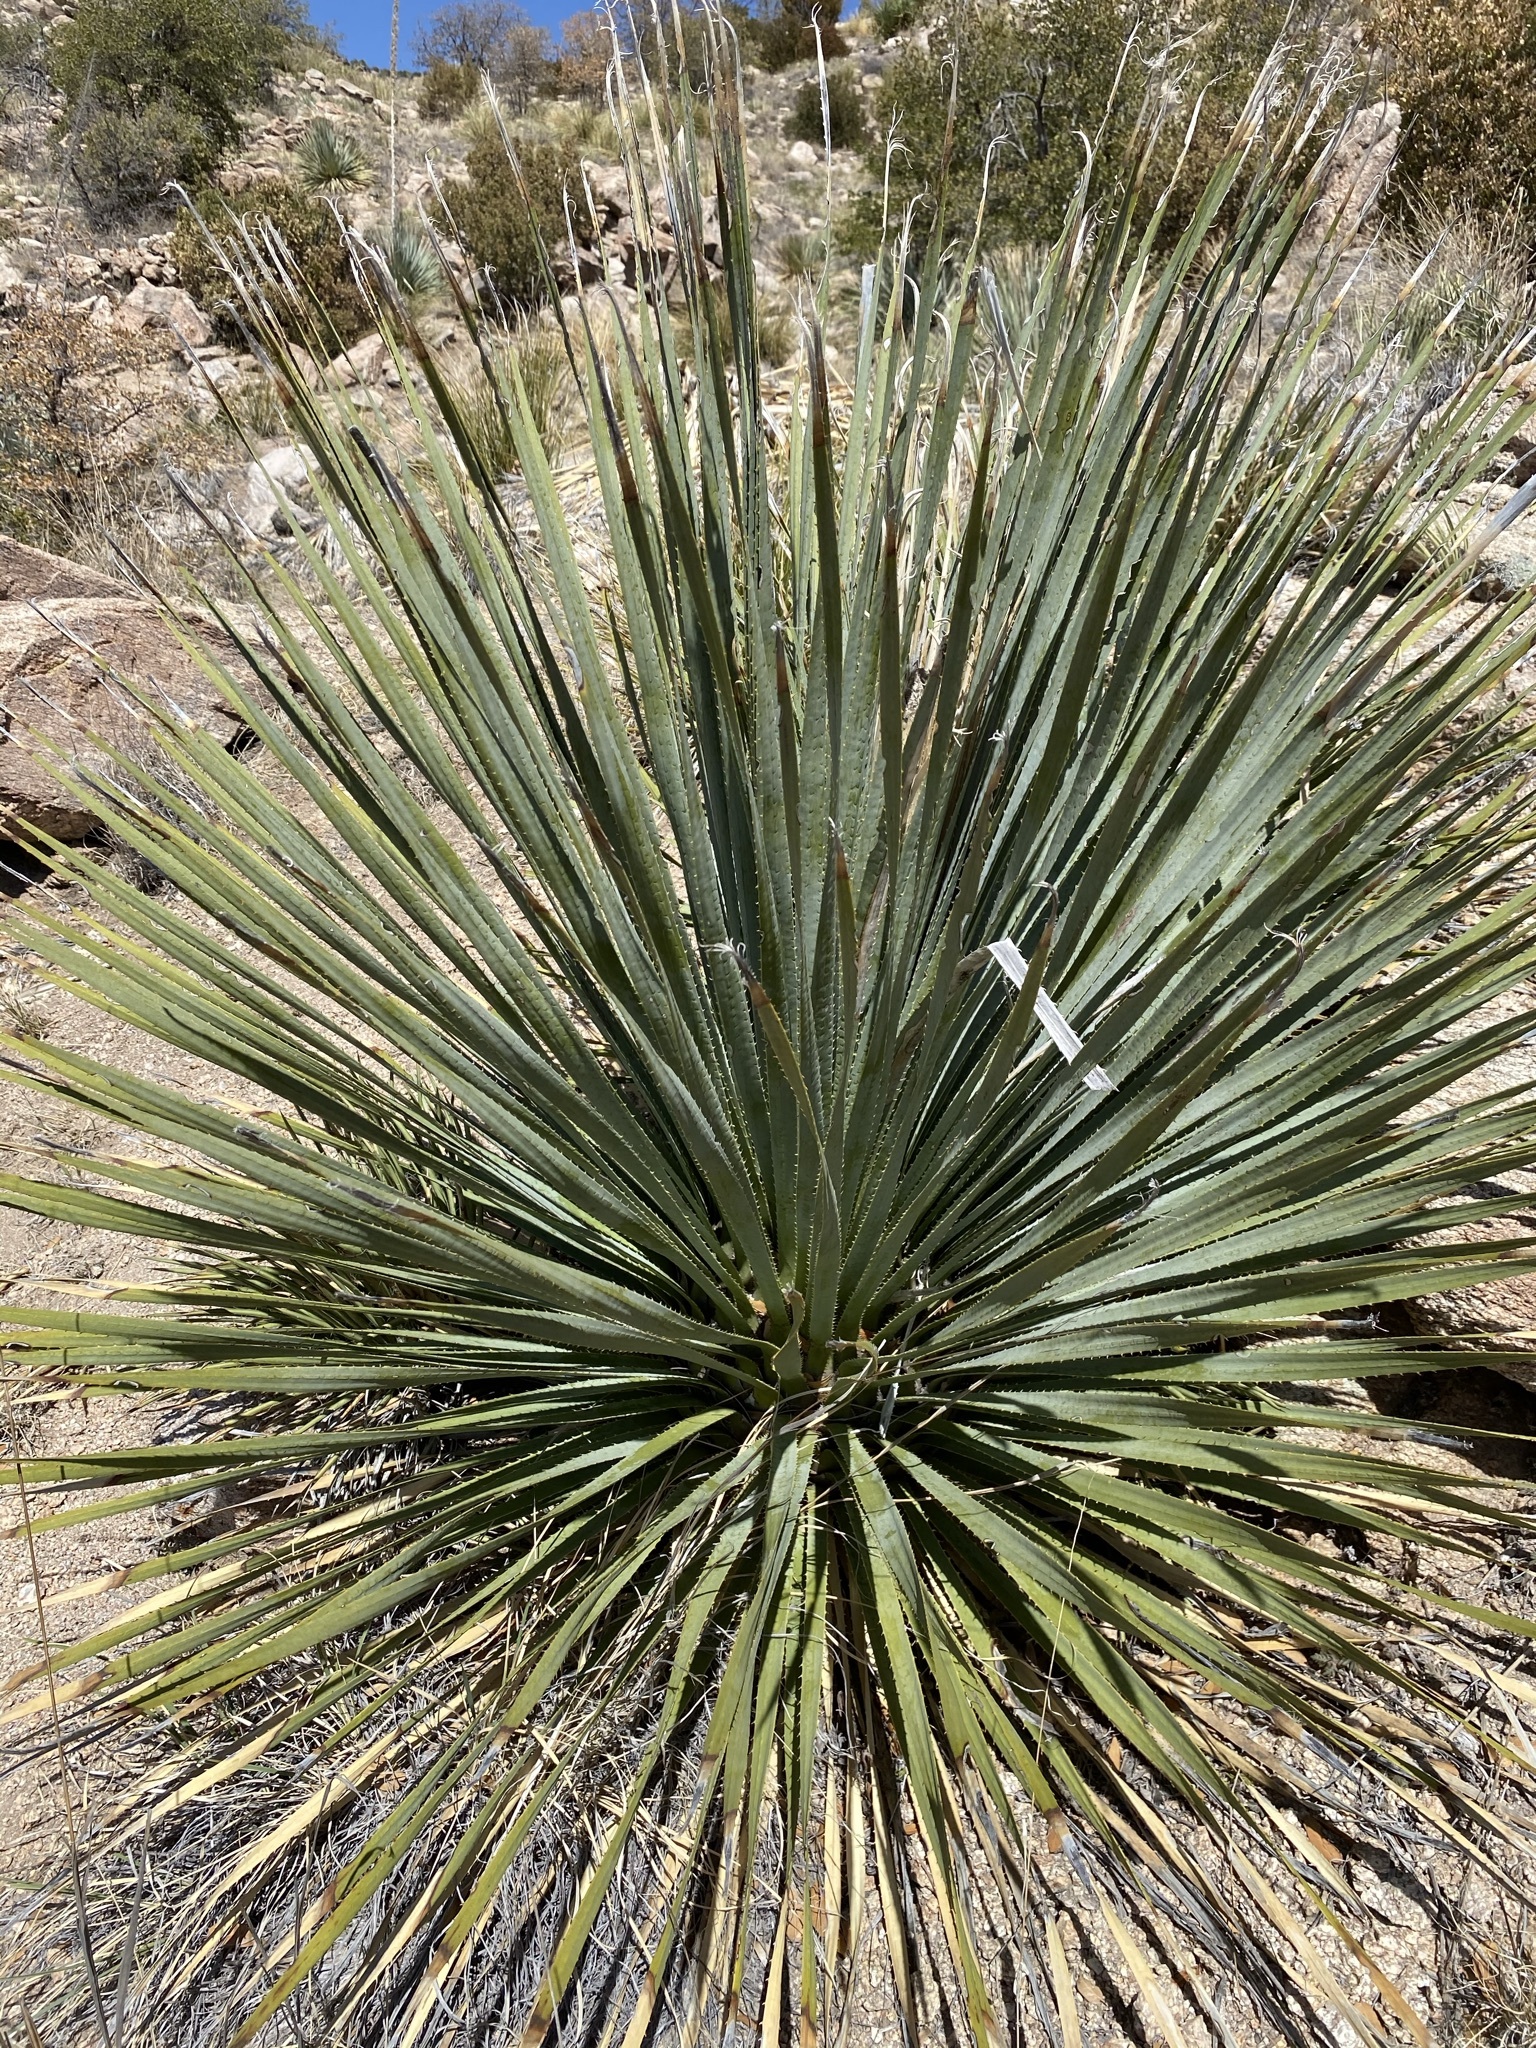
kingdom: Plantae
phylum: Tracheophyta
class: Liliopsida
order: Asparagales
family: Asparagaceae
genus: Dasylirion
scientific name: Dasylirion wheeleri
